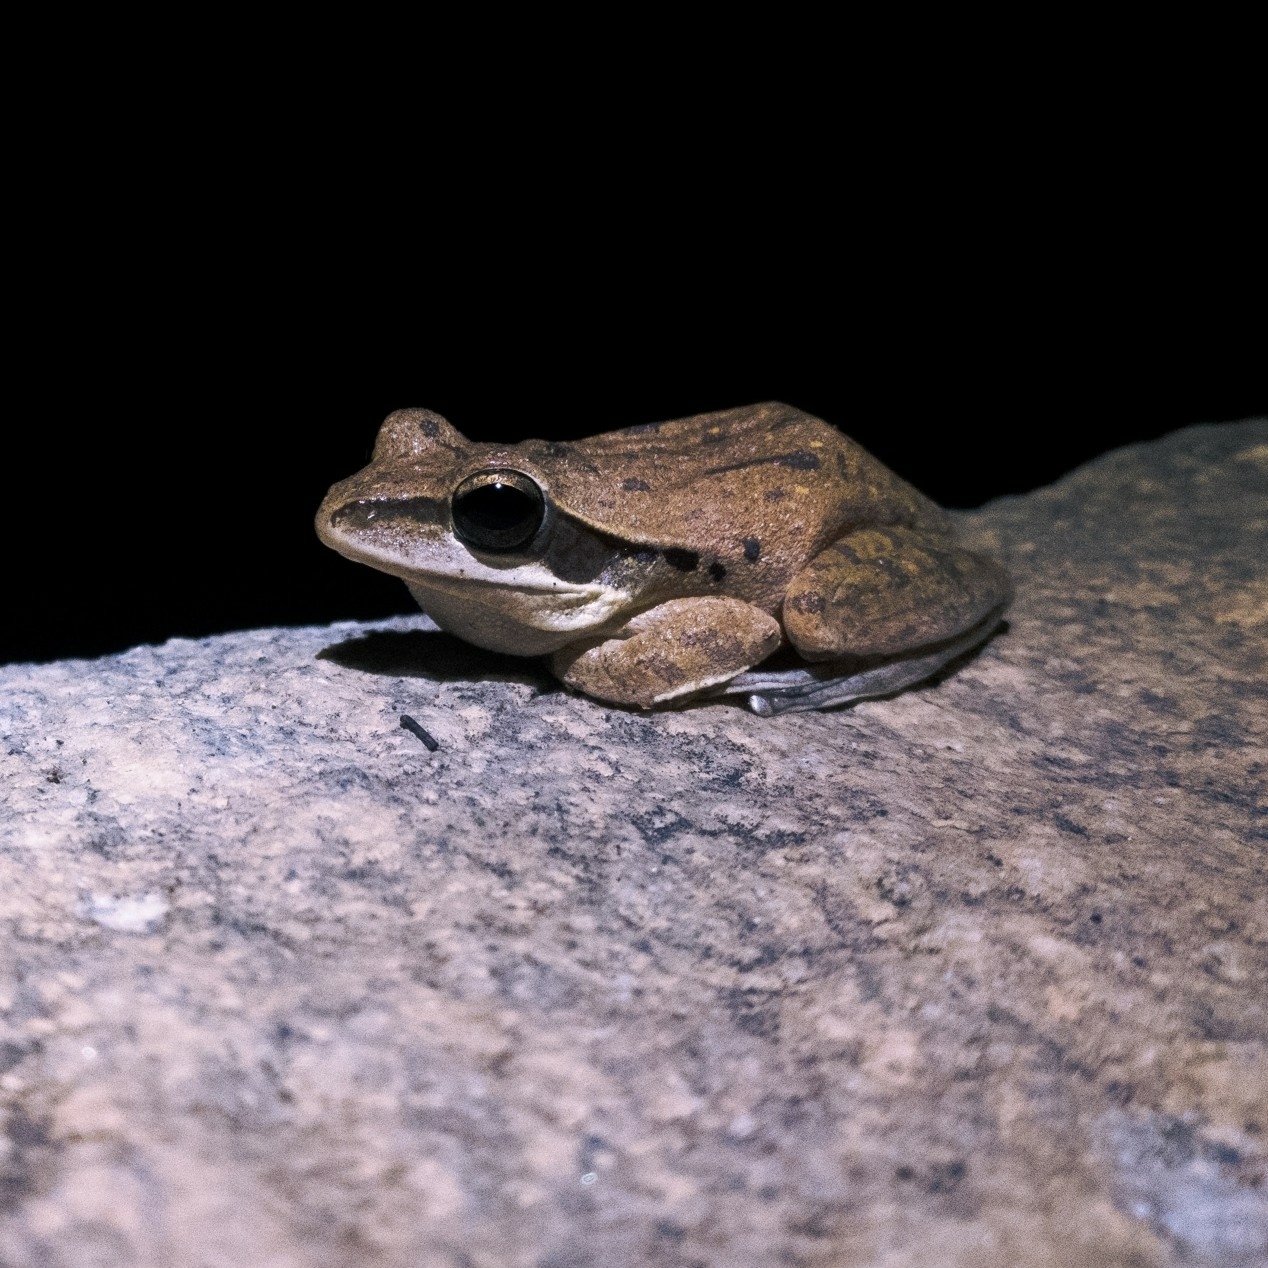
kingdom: Animalia
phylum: Chordata
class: Amphibia
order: Anura
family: Rhacophoridae
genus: Polypedates
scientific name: Polypedates maculatus
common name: Himalayan tree frog
